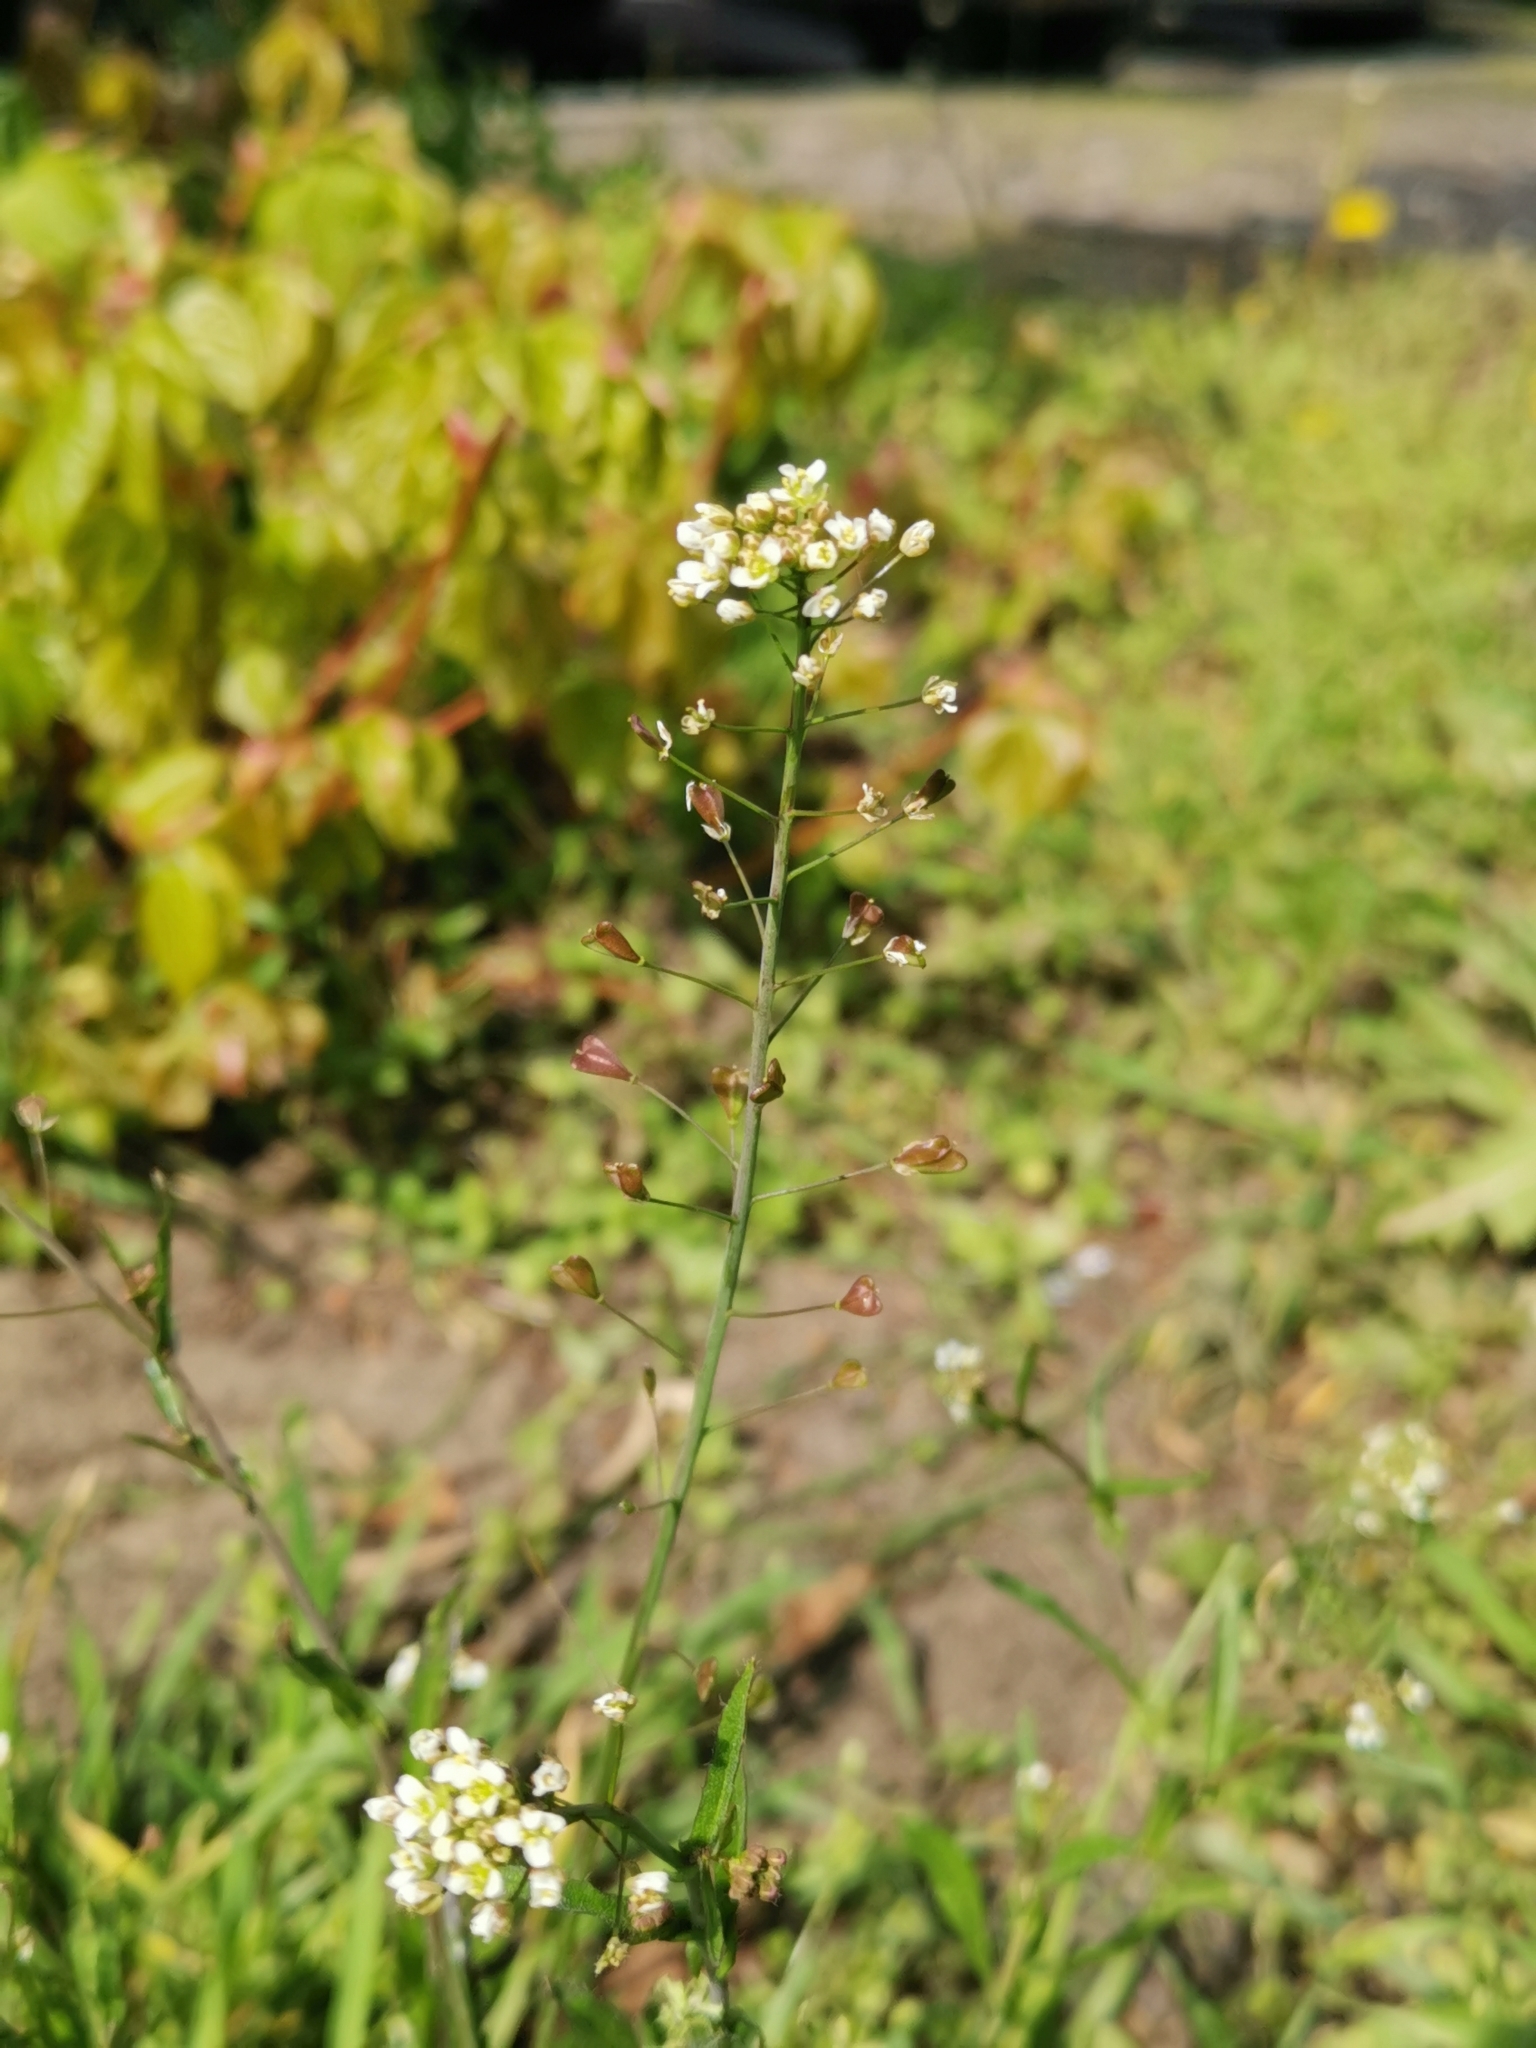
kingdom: Plantae
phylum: Tracheophyta
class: Magnoliopsida
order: Brassicales
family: Brassicaceae
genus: Capsella
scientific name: Capsella bursa-pastoris
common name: Shepherd's purse
